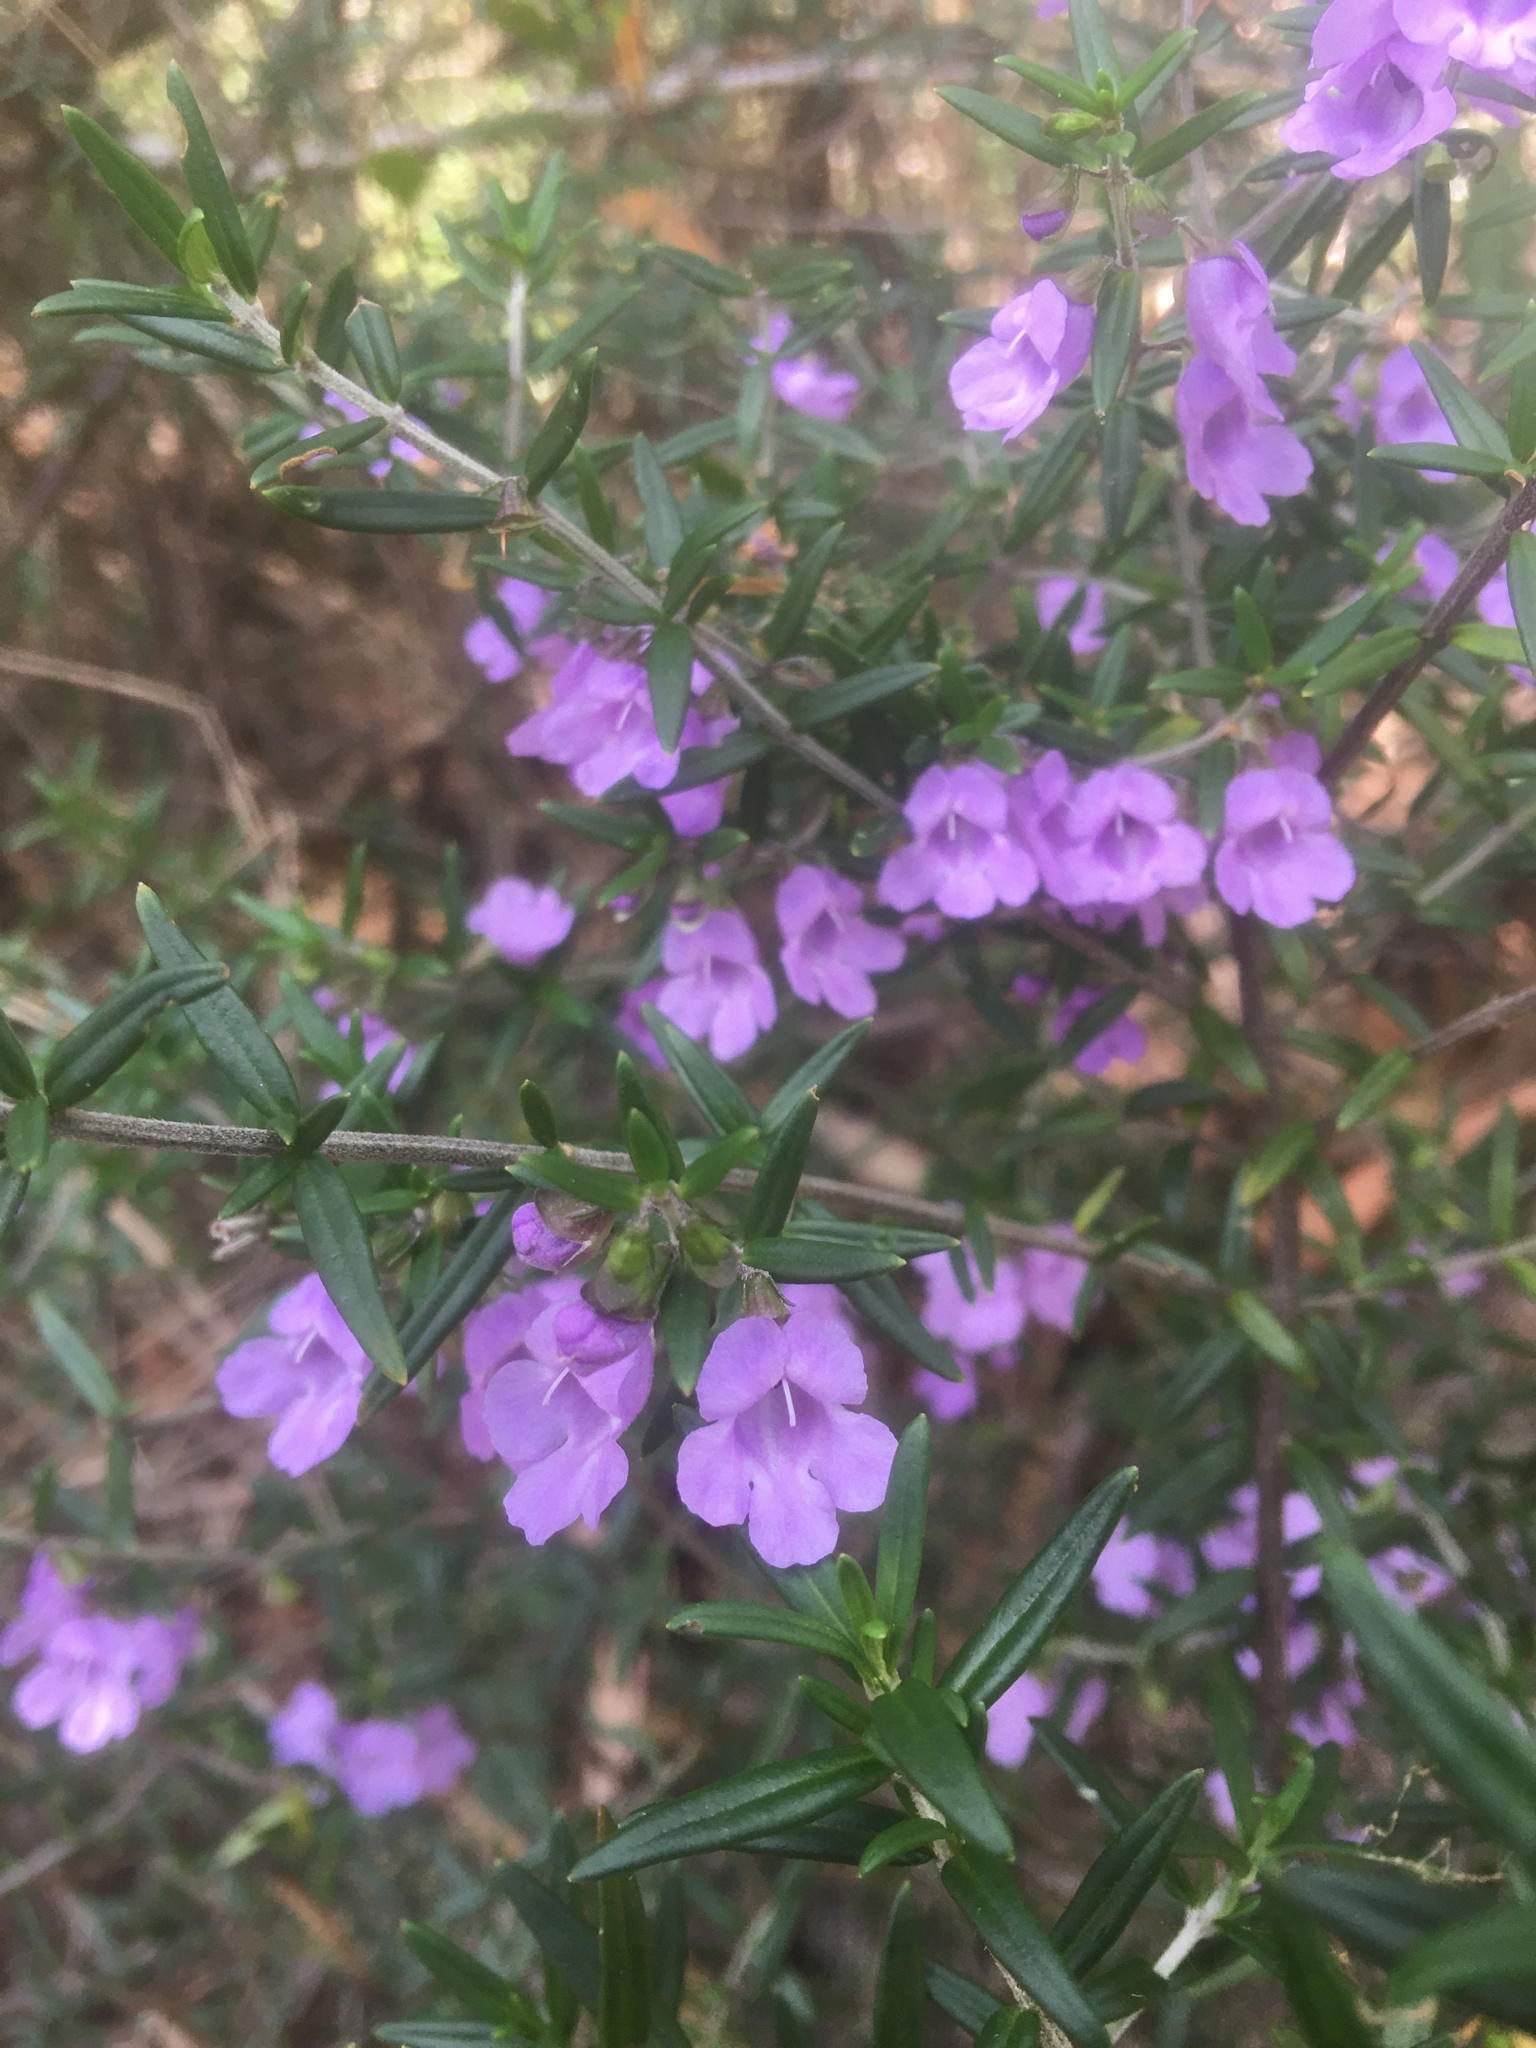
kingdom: Plantae
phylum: Tracheophyta
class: Magnoliopsida
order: Lamiales
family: Lamiaceae
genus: Prostanthera
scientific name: Prostanthera scutellarioides
